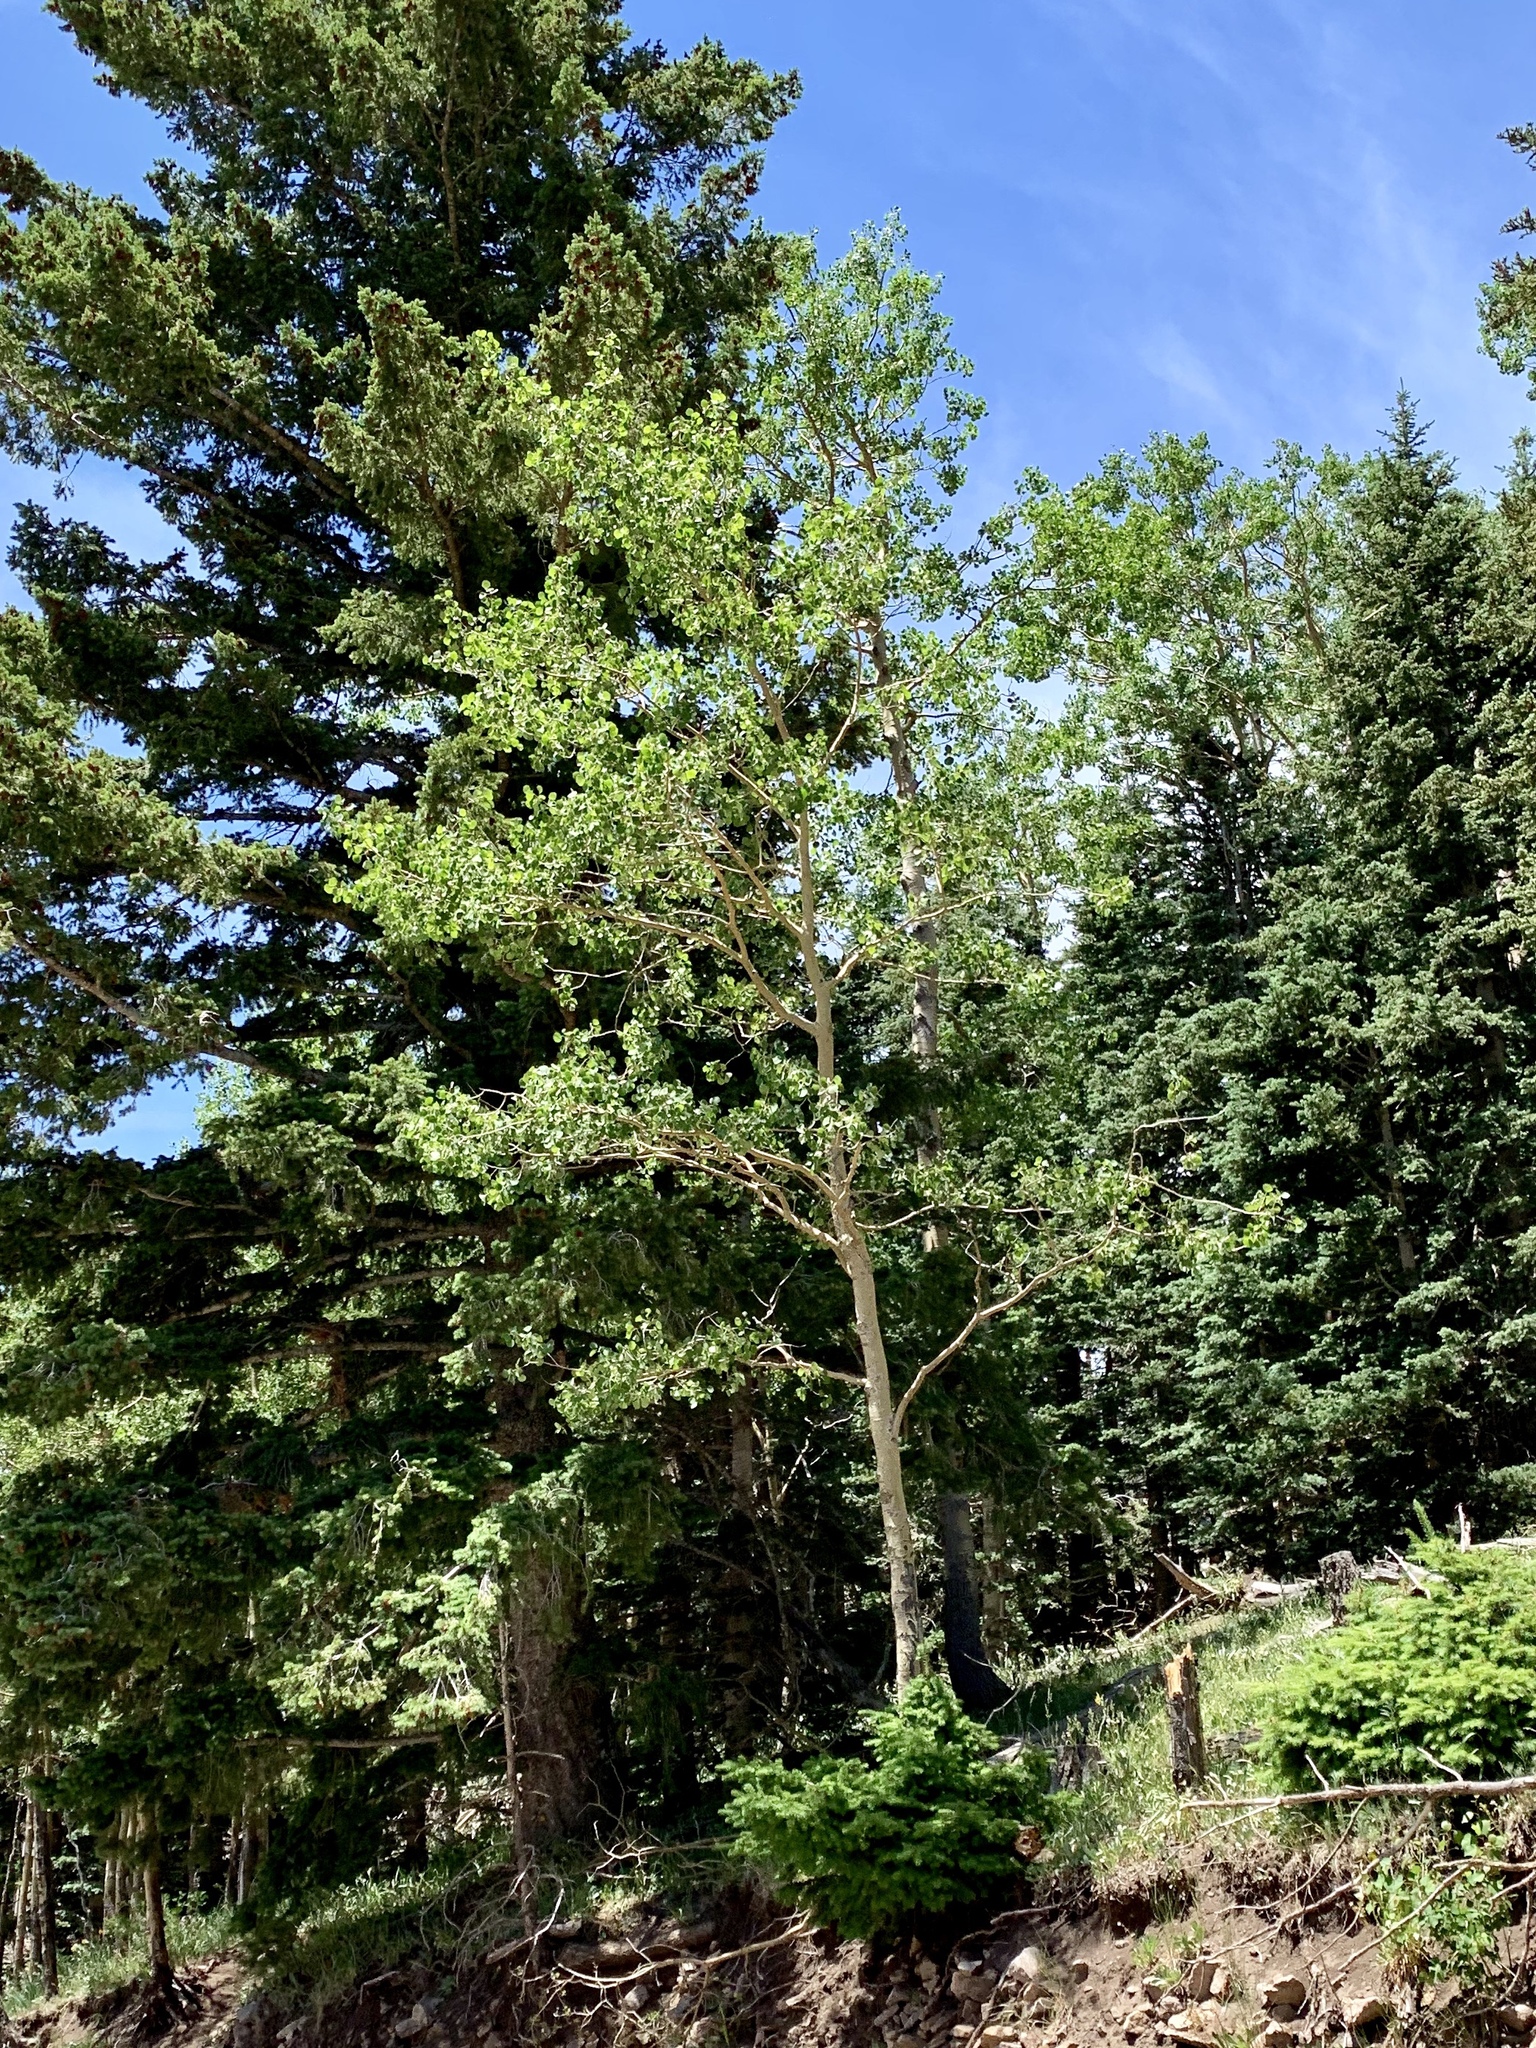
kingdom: Plantae
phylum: Tracheophyta
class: Magnoliopsida
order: Malpighiales
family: Salicaceae
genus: Populus
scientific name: Populus tremuloides
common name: Quaking aspen
